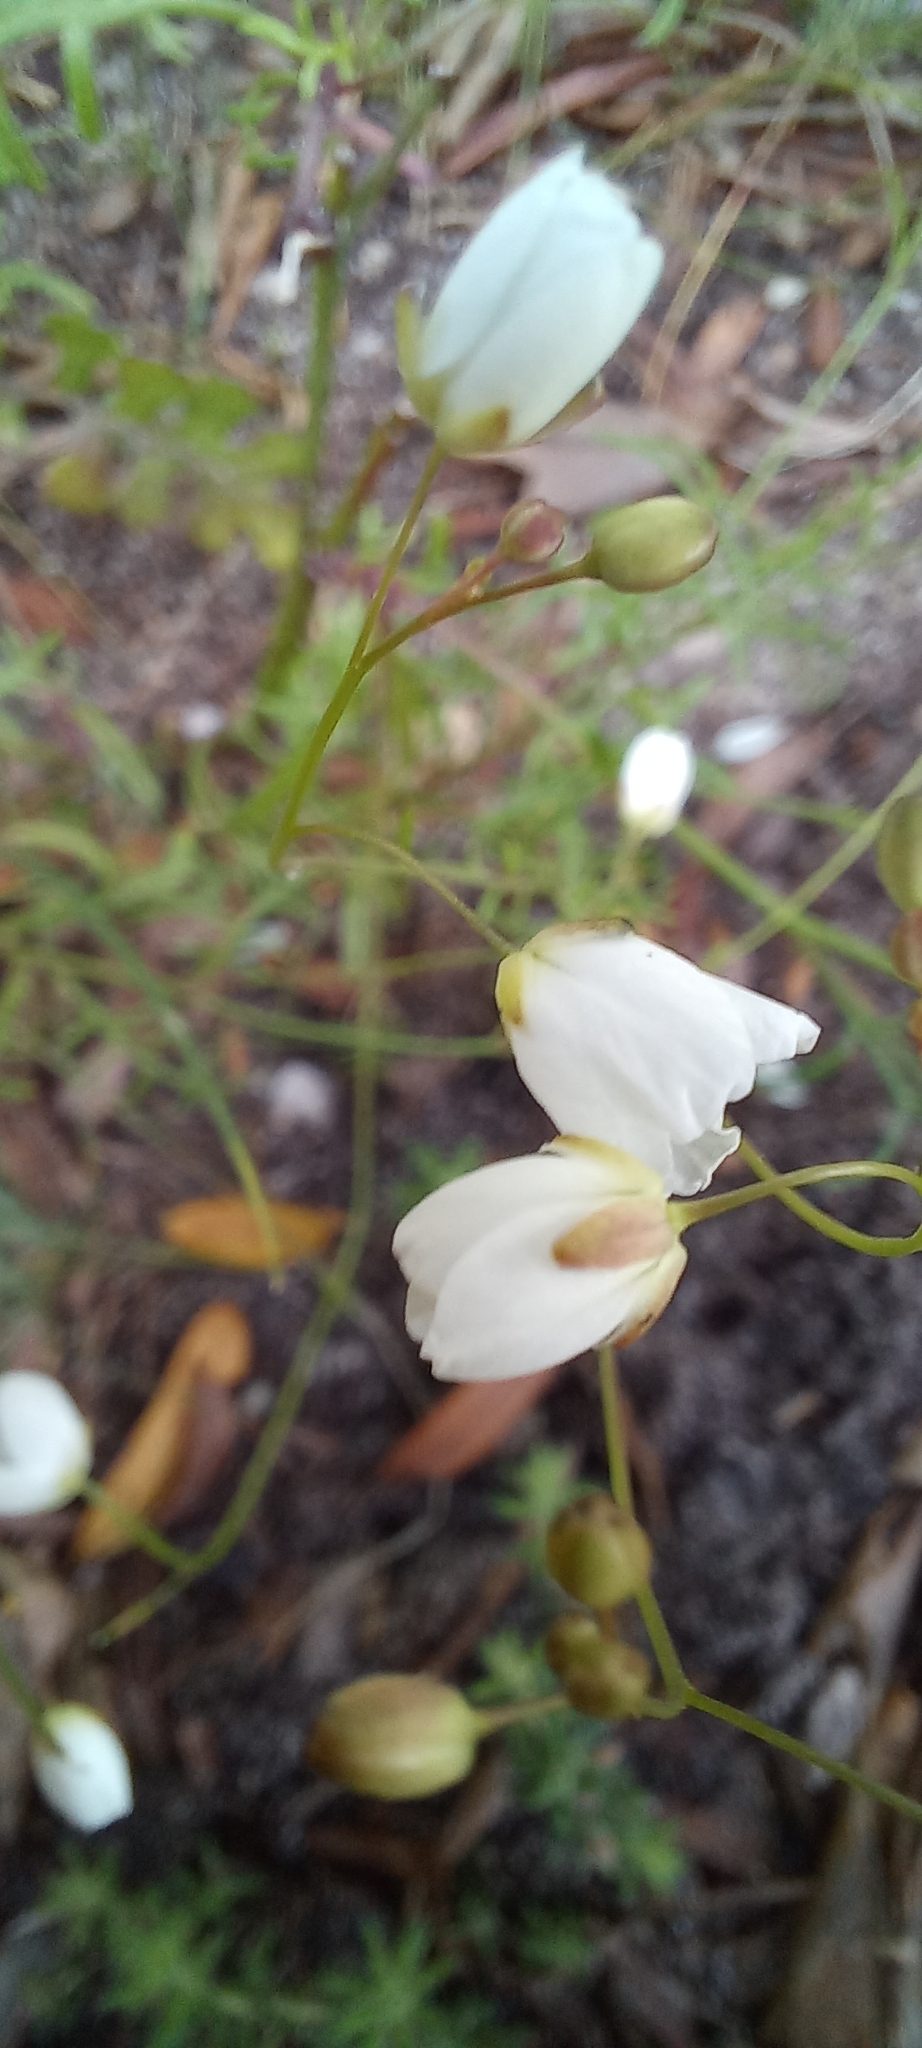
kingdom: Plantae
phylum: Tracheophyta
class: Magnoliopsida
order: Brassicales
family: Brassicaceae
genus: Heliophila
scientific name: Heliophila meyeri
